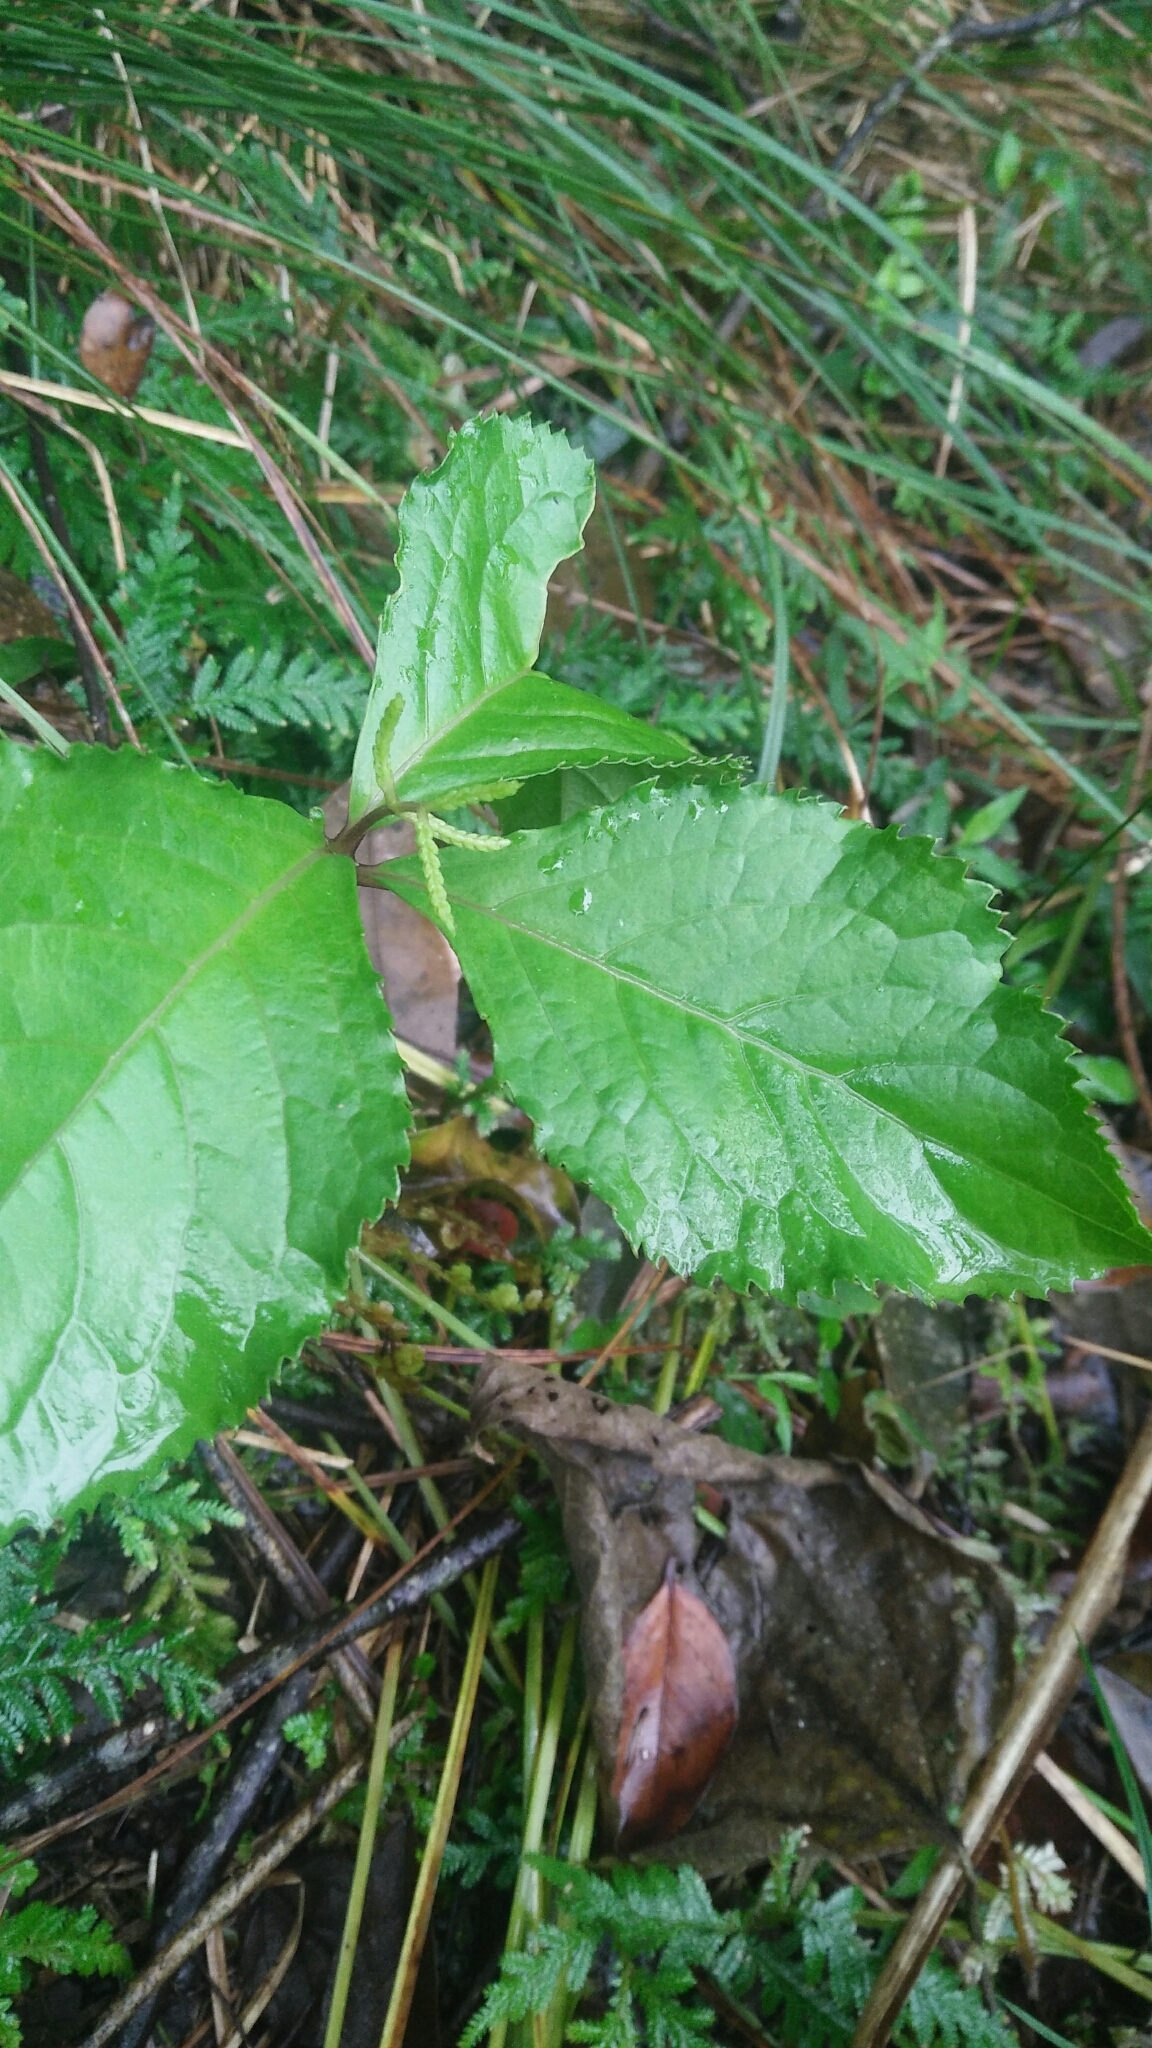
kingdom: Plantae
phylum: Tracheophyta
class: Magnoliopsida
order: Chloranthales
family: Chloranthaceae
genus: Chloranthus
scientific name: Chloranthus oldhamii
